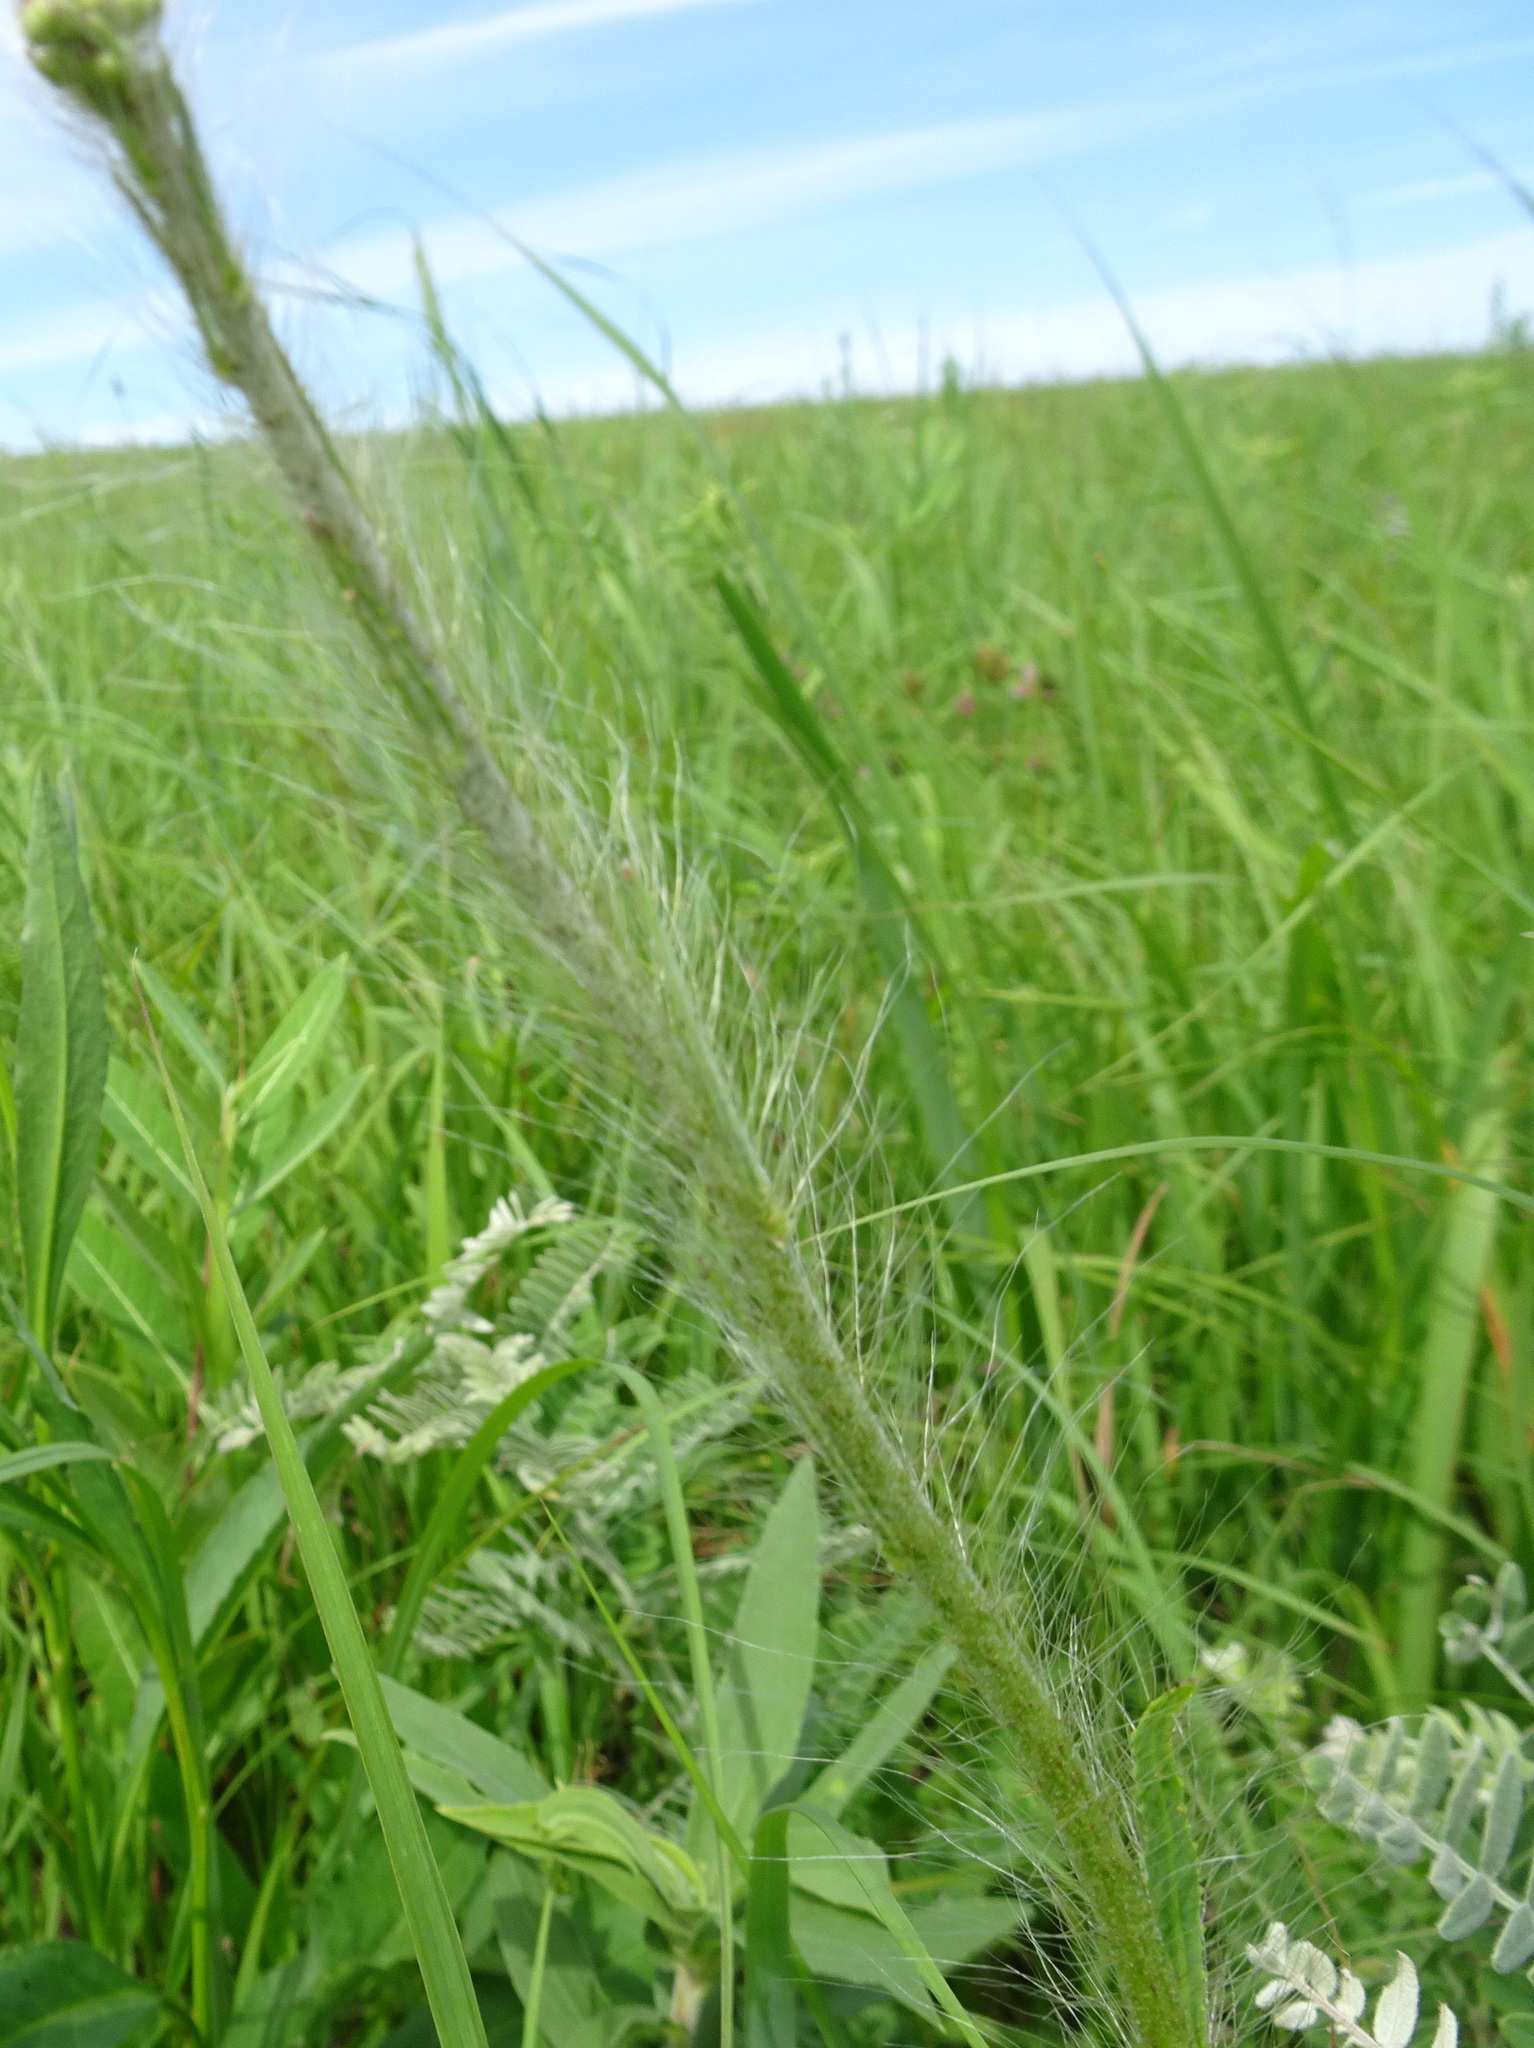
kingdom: Plantae
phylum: Tracheophyta
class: Magnoliopsida
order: Asterales
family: Asteraceae
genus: Hieracium
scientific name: Hieracium longipilum
